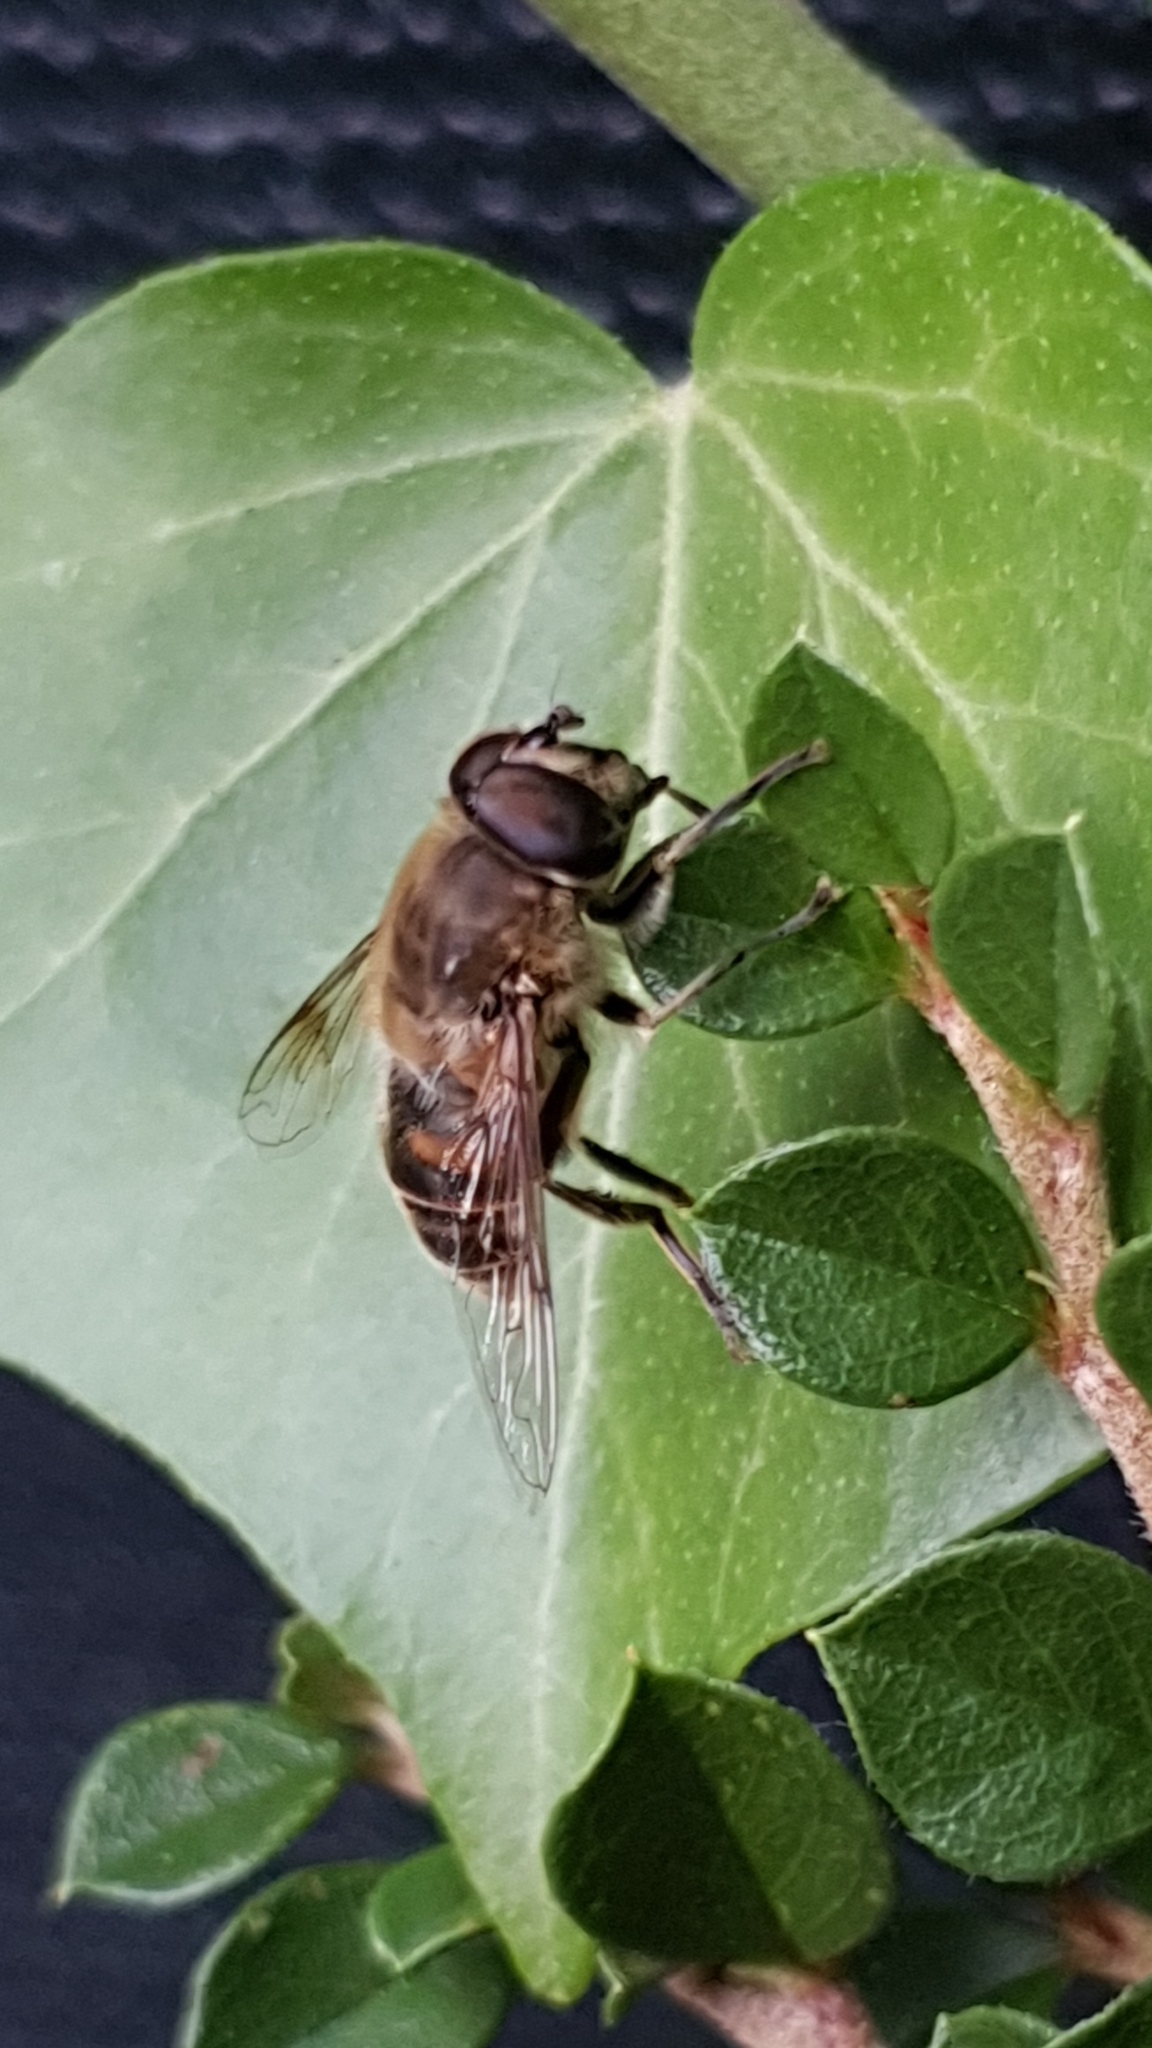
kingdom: Animalia
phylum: Arthropoda
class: Insecta
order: Diptera
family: Syrphidae
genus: Eristalis
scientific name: Eristalis tenax
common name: Drone fly
